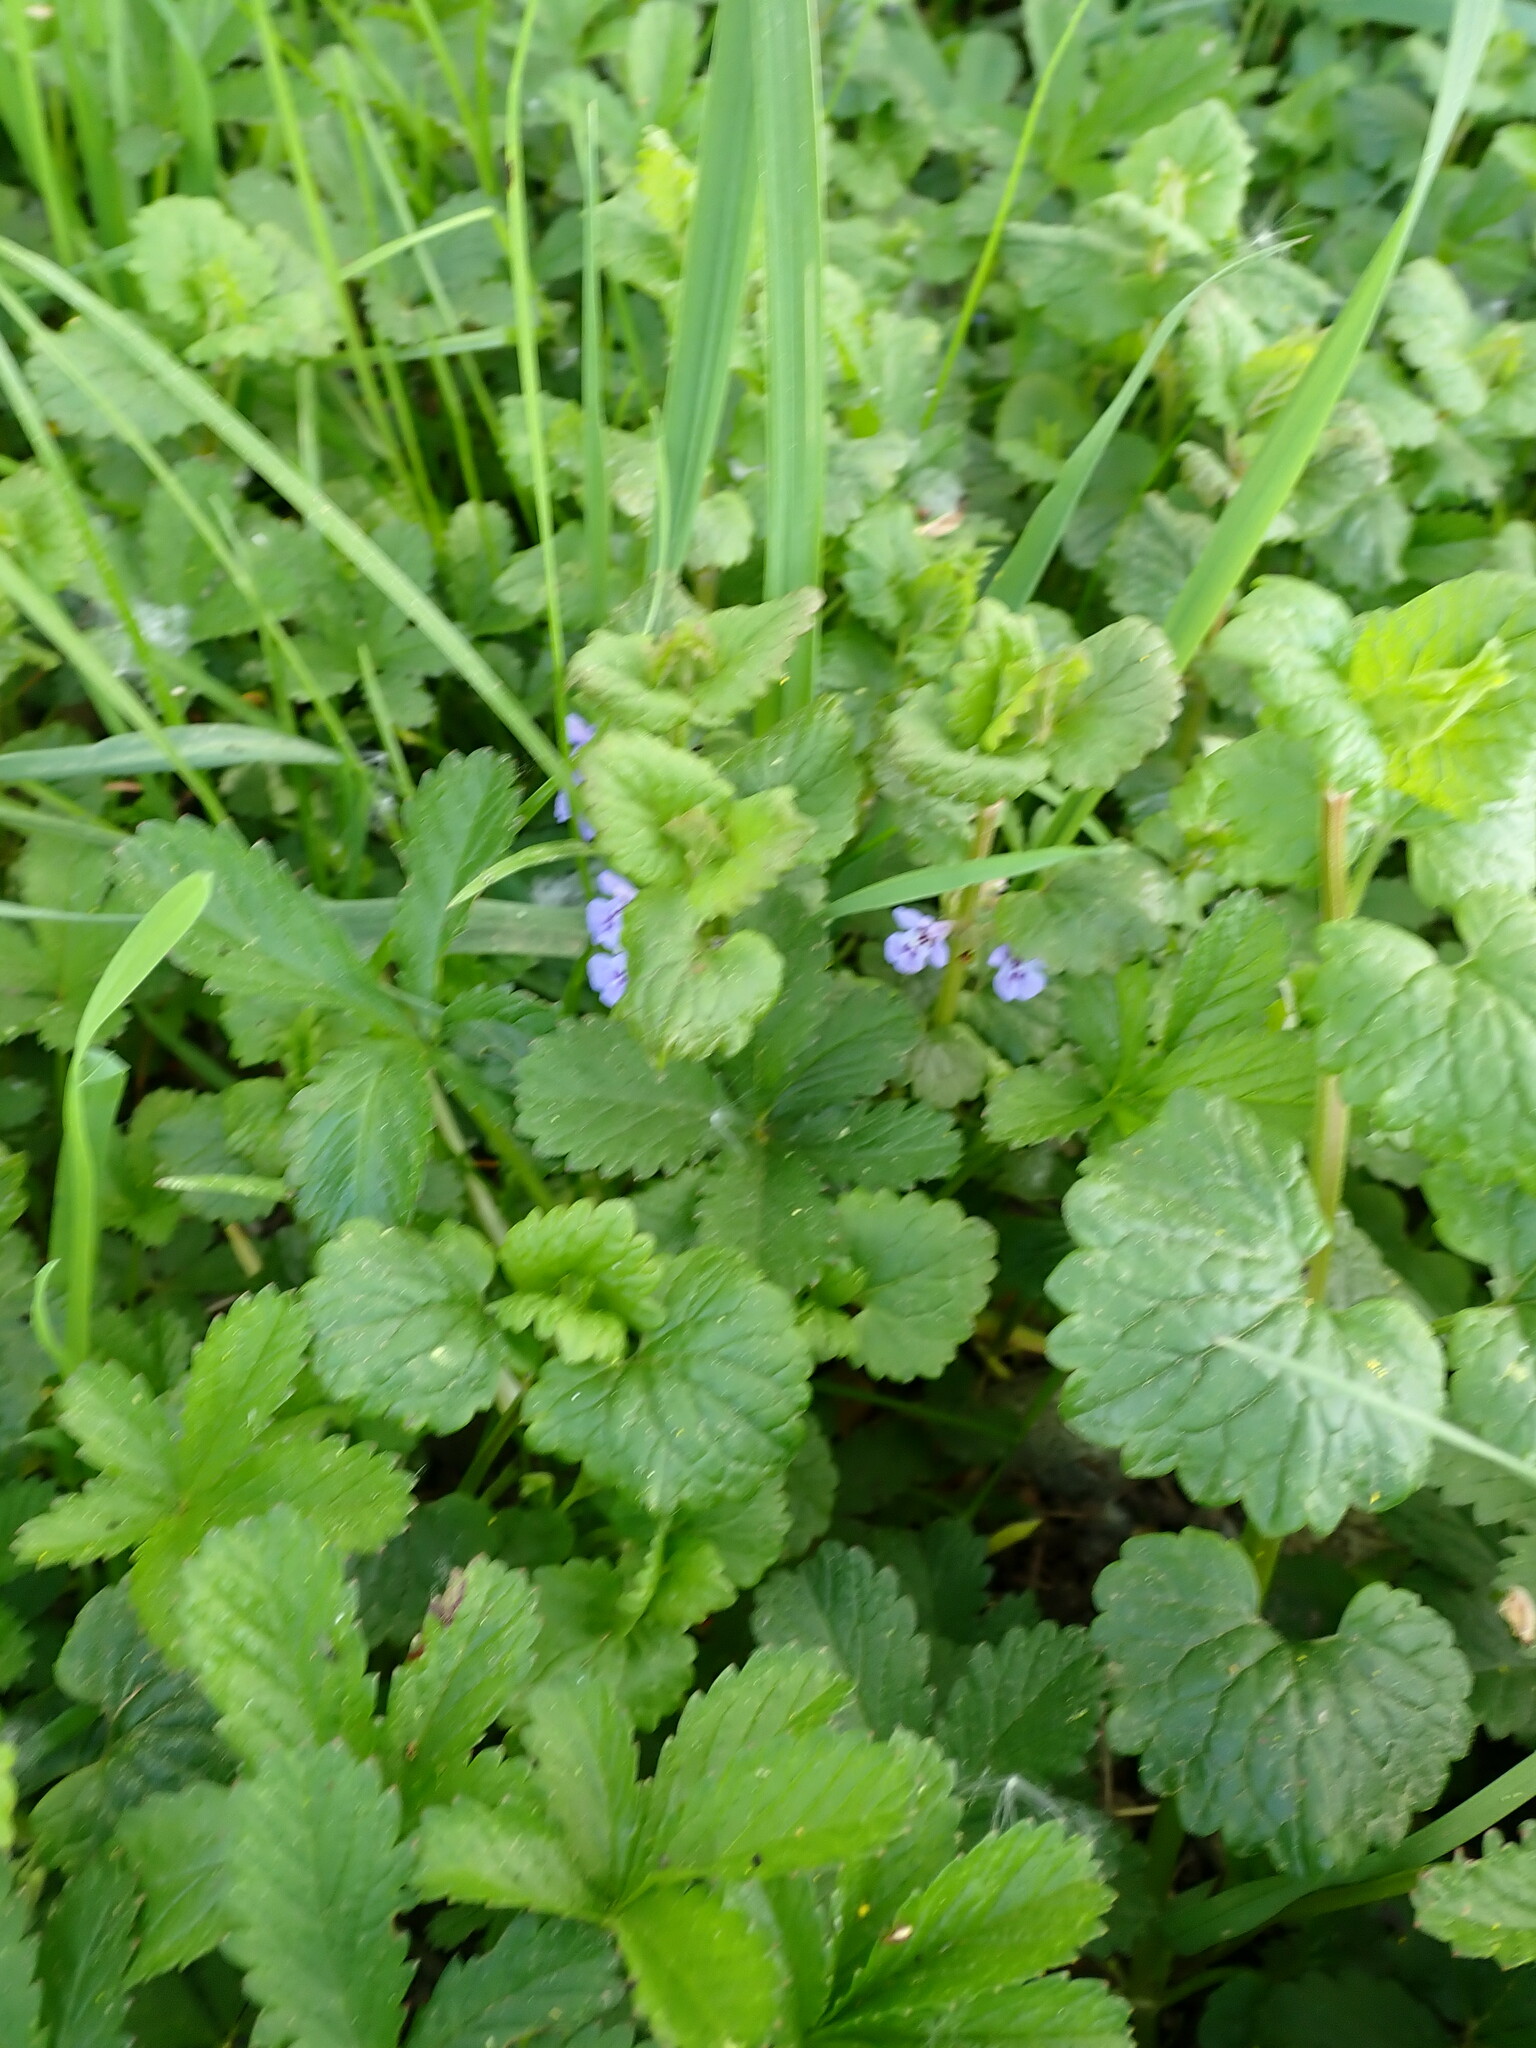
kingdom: Plantae
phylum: Tracheophyta
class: Magnoliopsida
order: Lamiales
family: Lamiaceae
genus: Glechoma
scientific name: Glechoma hederacea
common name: Ground ivy
